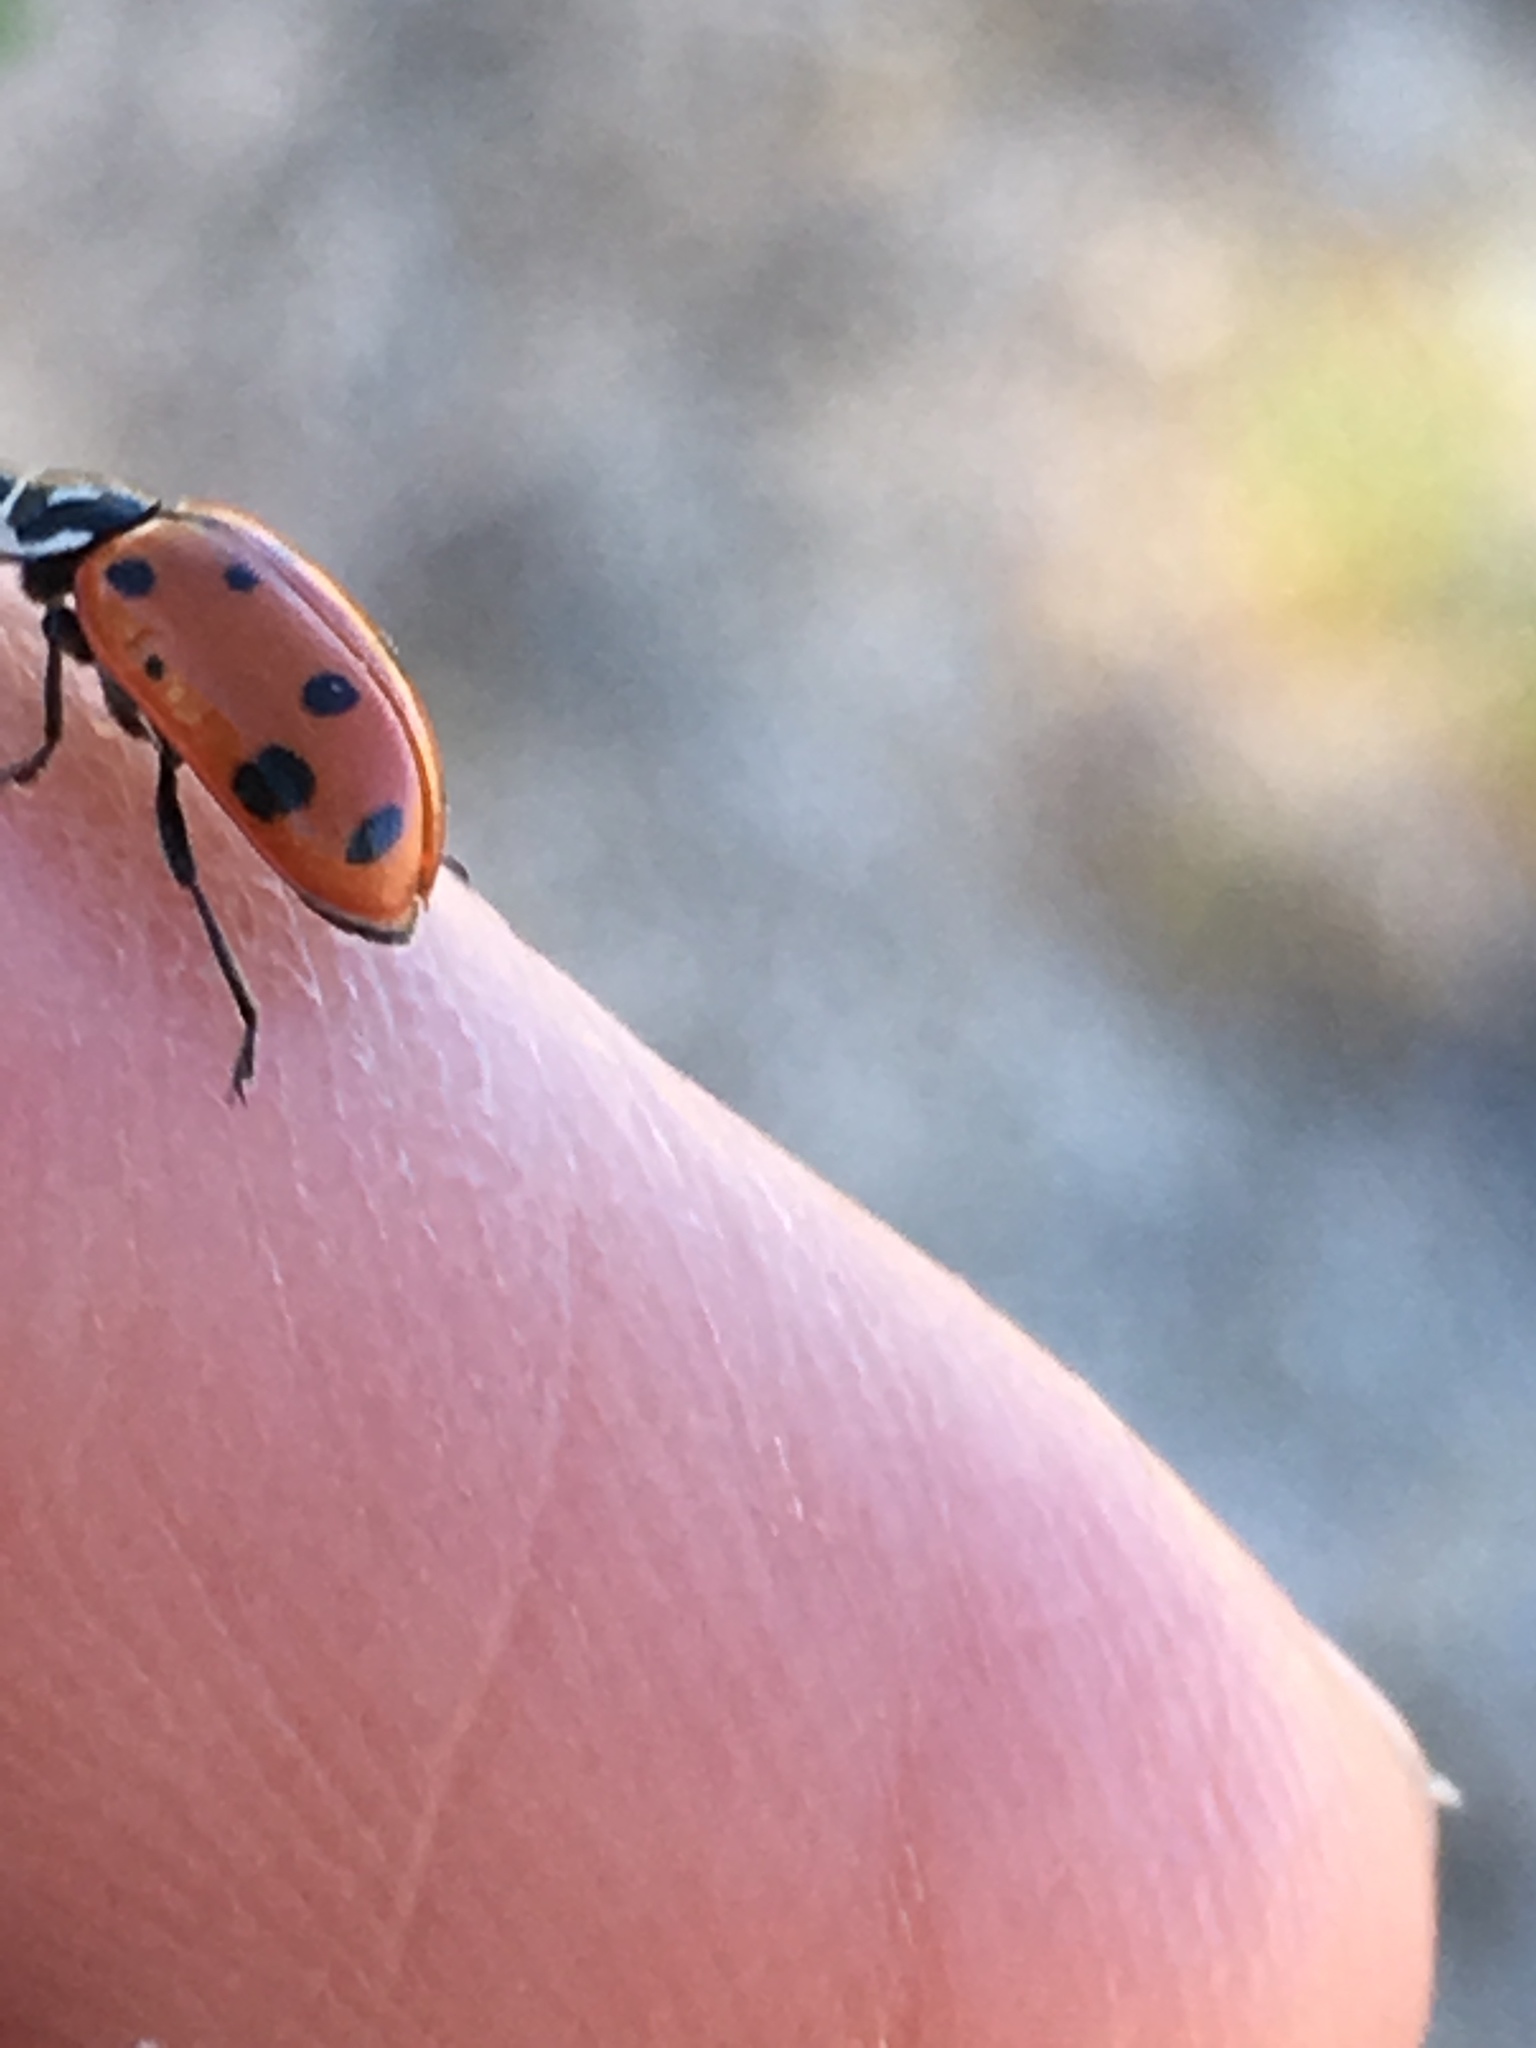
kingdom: Animalia
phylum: Arthropoda
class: Insecta
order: Coleoptera
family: Coccinellidae
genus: Hippodamia
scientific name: Hippodamia convergens
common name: Convergent lady beetle
